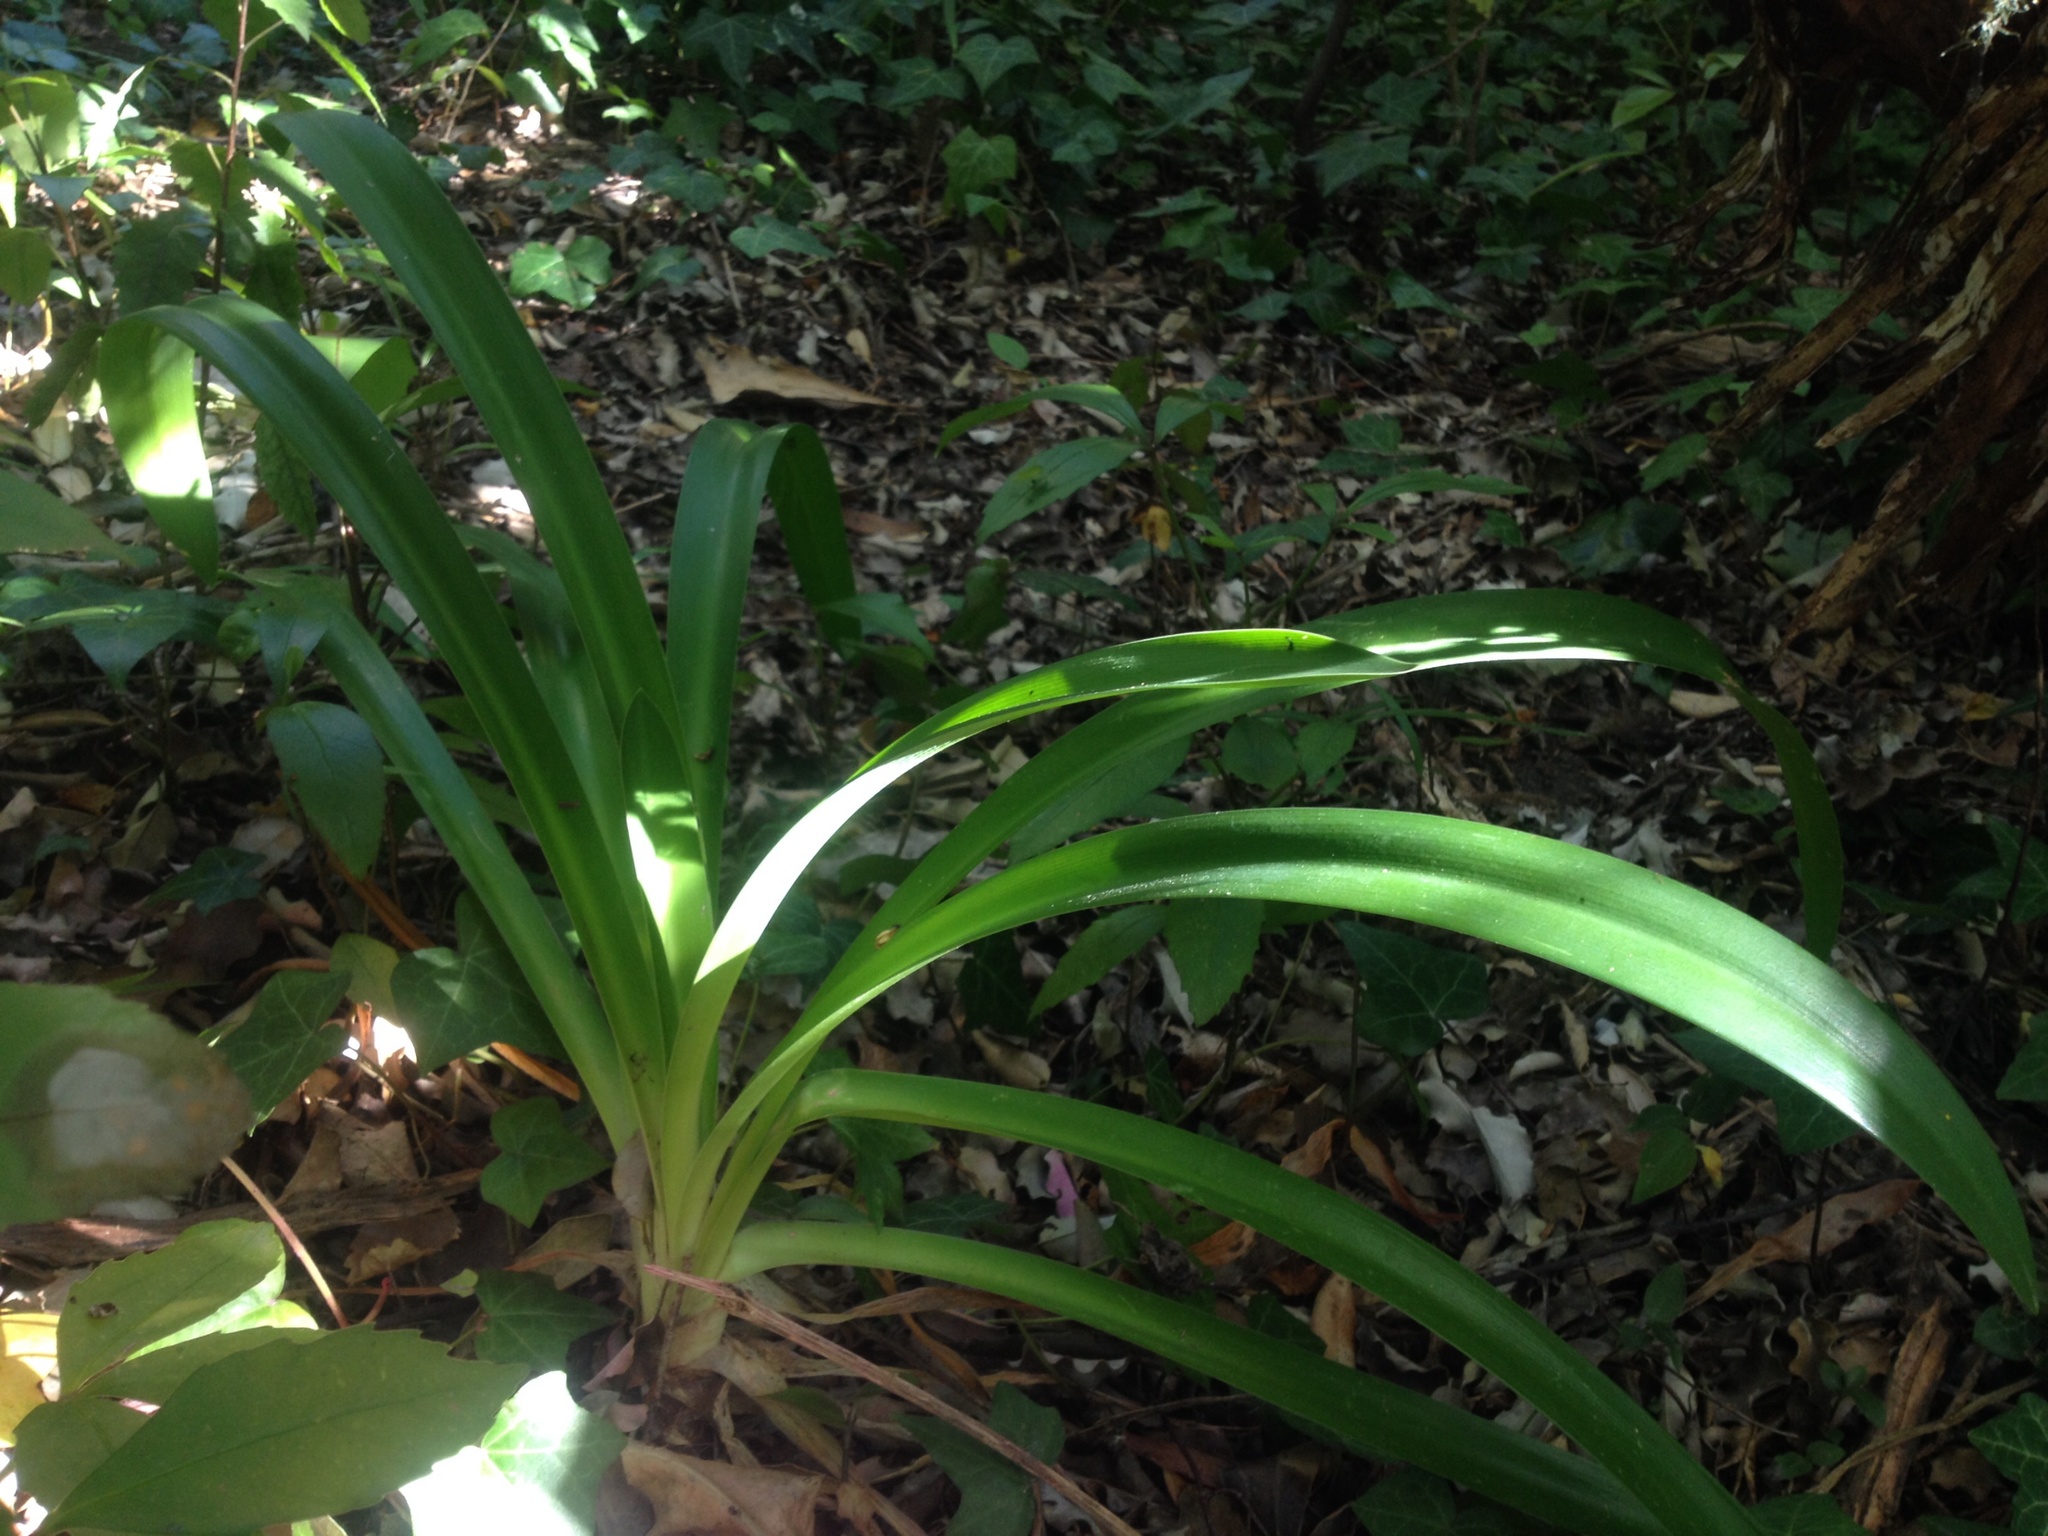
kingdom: Plantae
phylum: Tracheophyta
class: Liliopsida
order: Asparagales
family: Amaryllidaceae
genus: Agapanthus
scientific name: Agapanthus praecox
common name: African-lily
